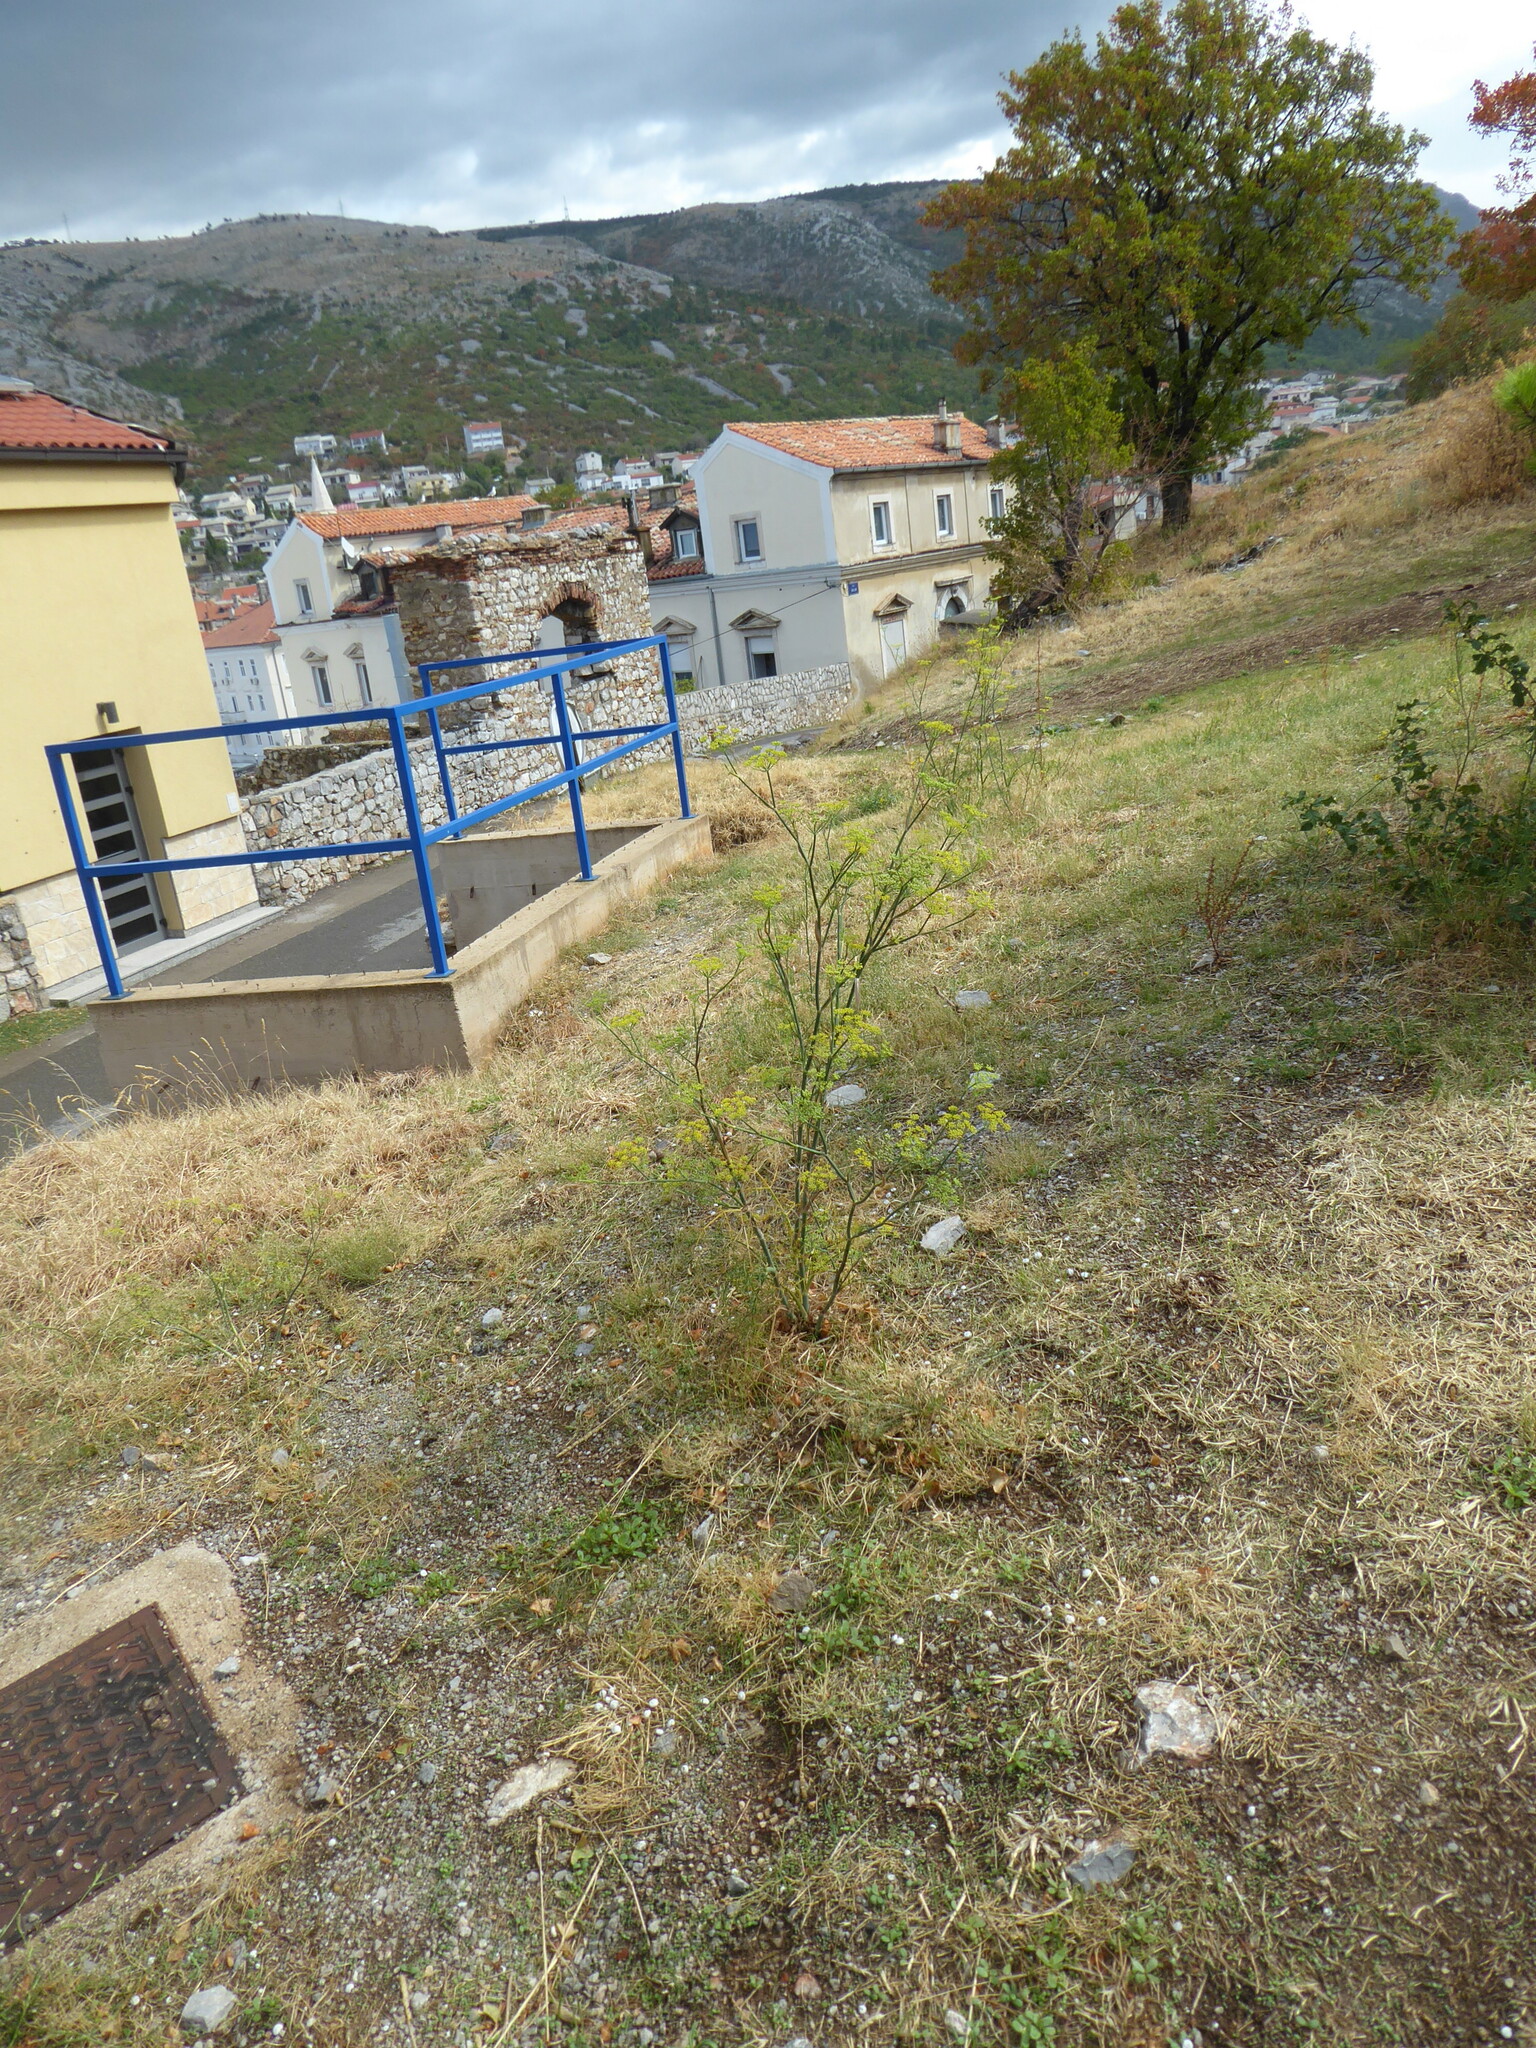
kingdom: Plantae
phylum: Tracheophyta
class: Magnoliopsida
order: Apiales
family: Apiaceae
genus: Foeniculum
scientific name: Foeniculum vulgare
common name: Fennel
